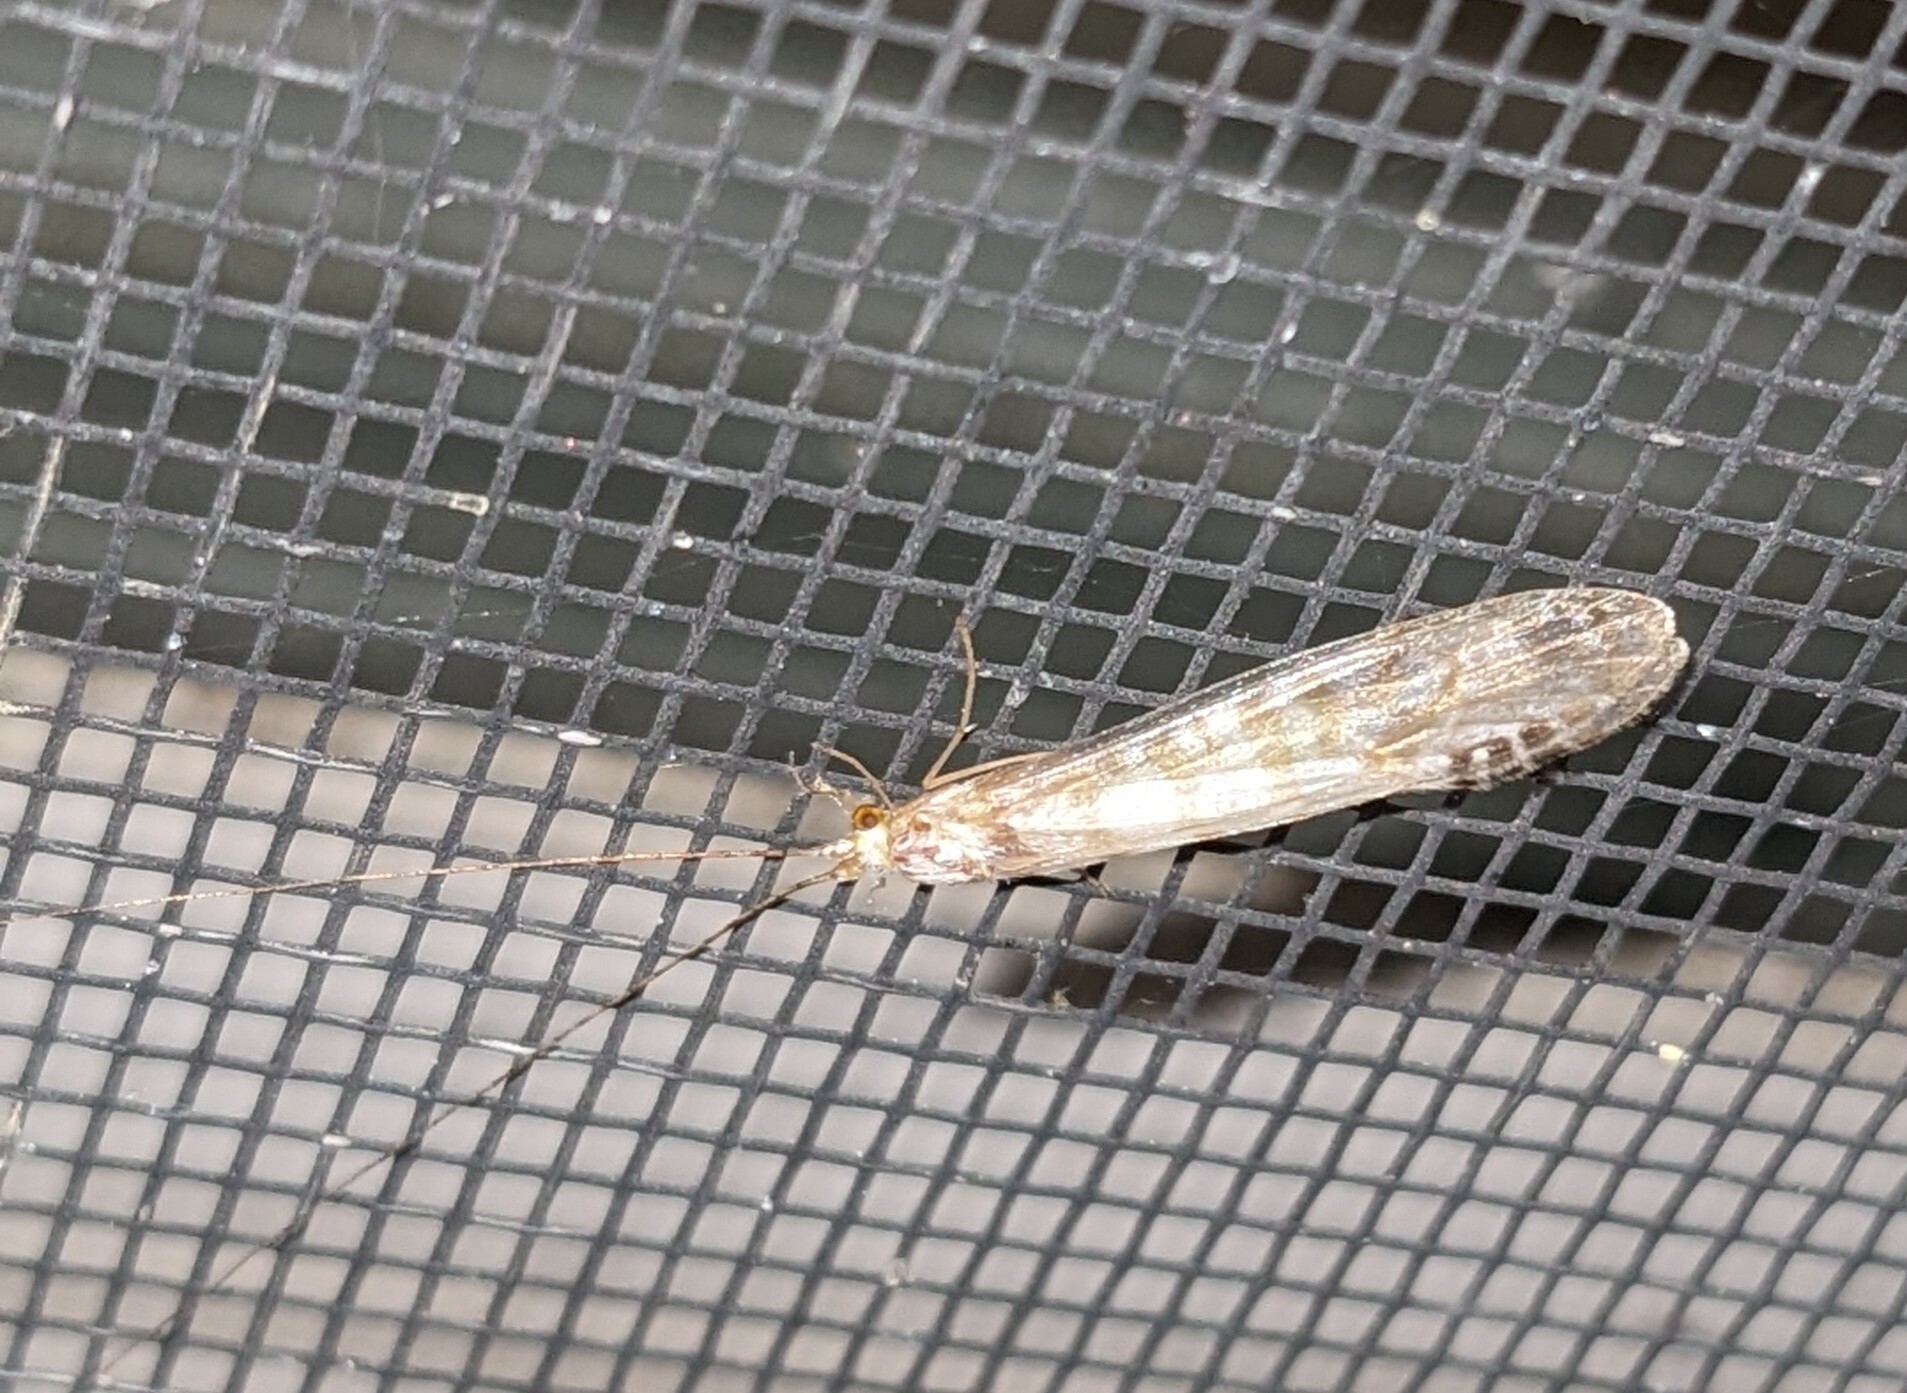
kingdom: Animalia
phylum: Arthropoda
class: Insecta
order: Trichoptera
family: Leptoceridae
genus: Nectopsyche
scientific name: Nectopsyche exquisita
